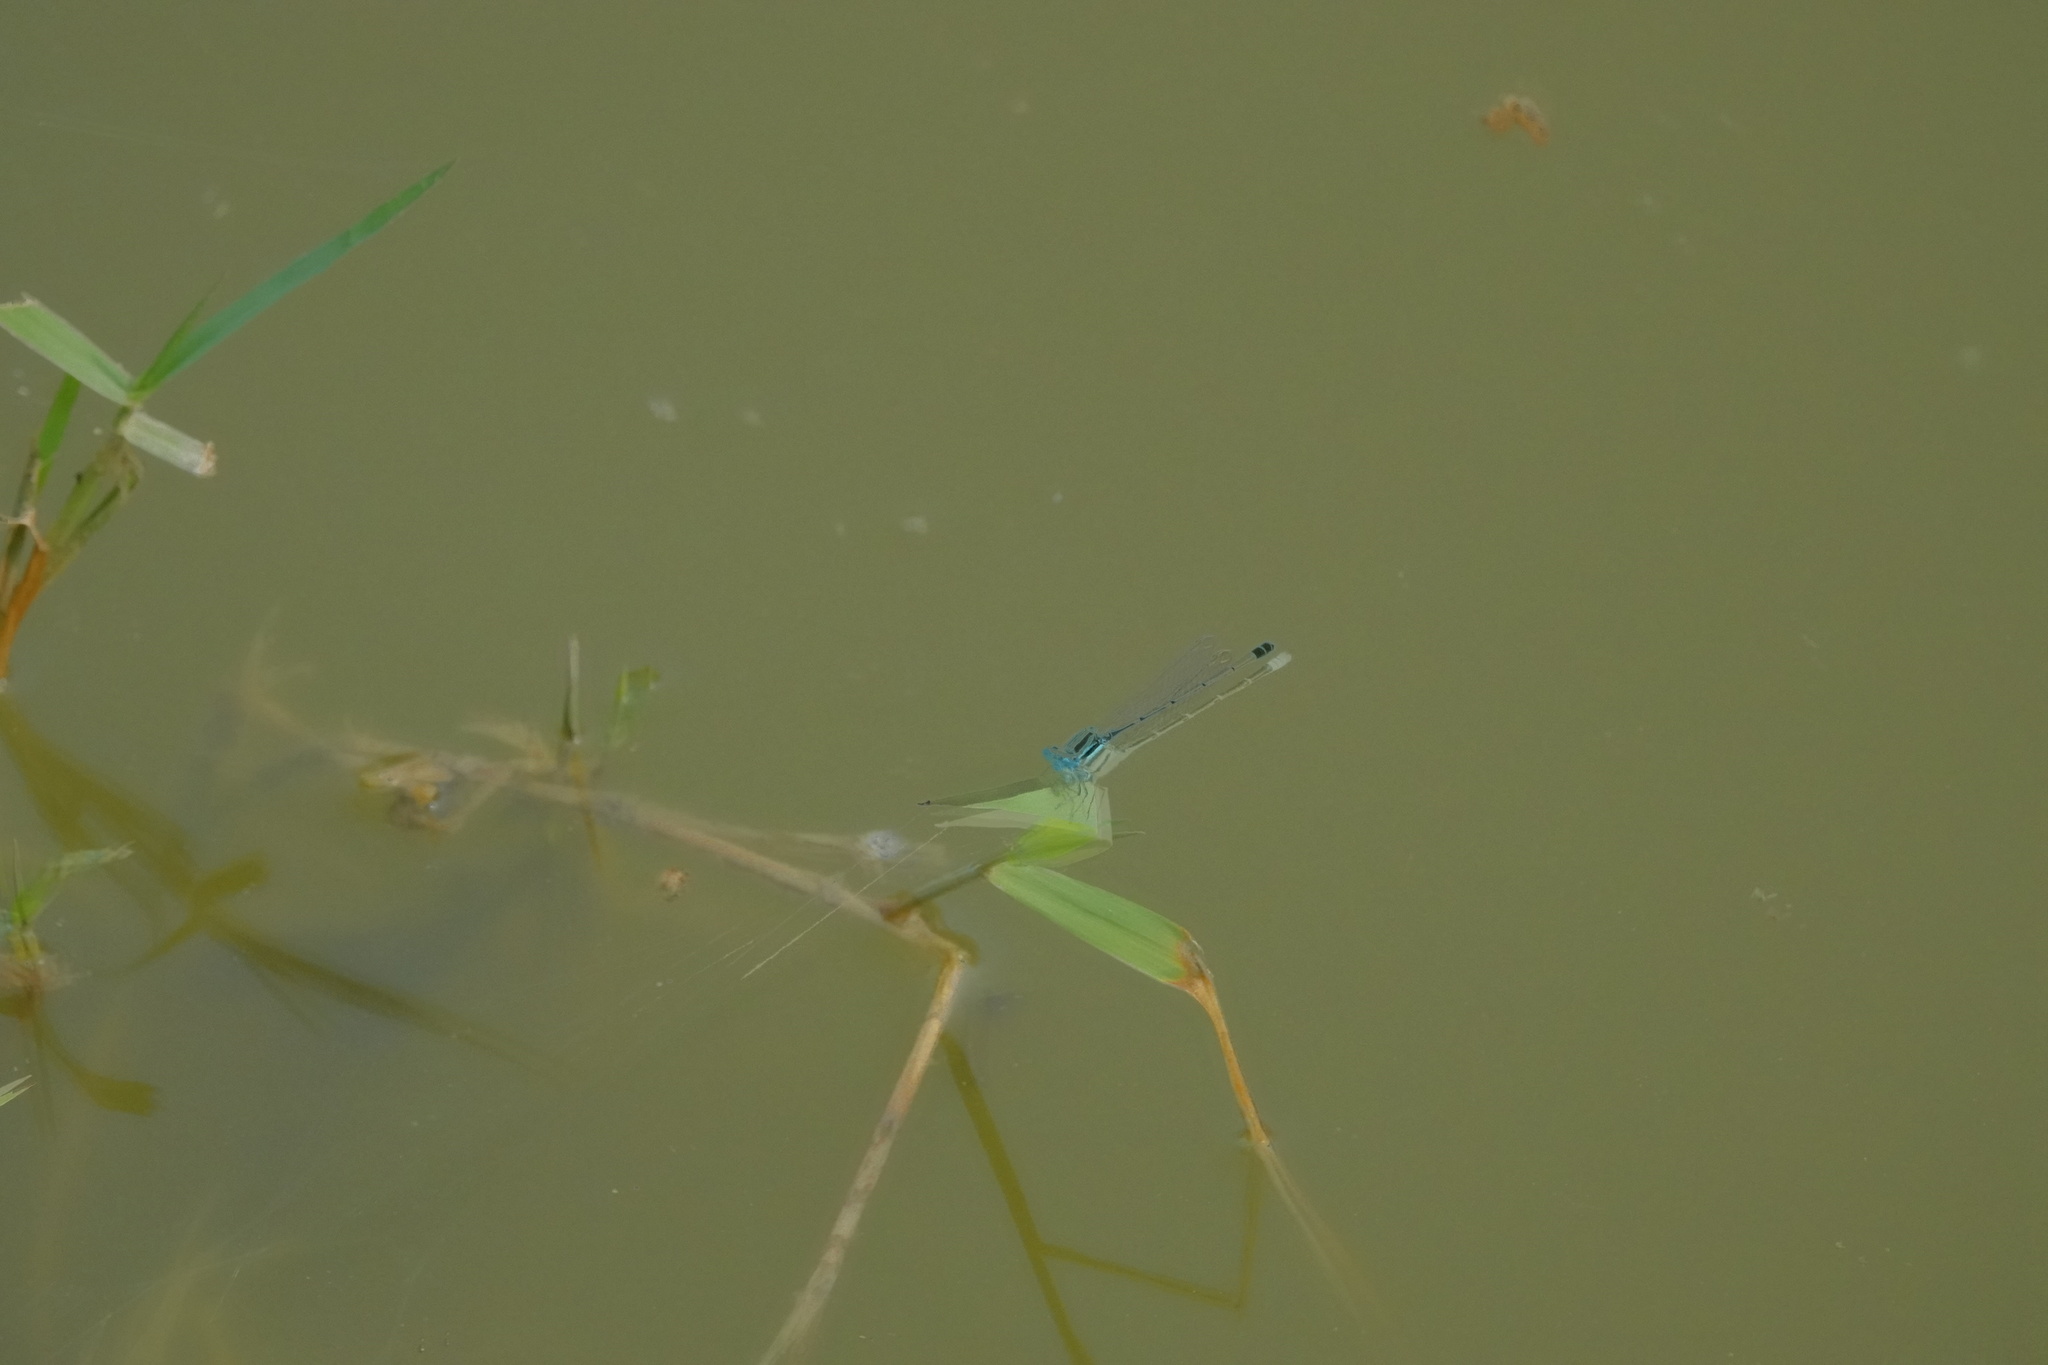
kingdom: Animalia
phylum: Arthropoda
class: Insecta
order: Odonata
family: Coenagrionidae
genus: Paracercion
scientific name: Paracercion melanotum
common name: Eastern lilysquatter
